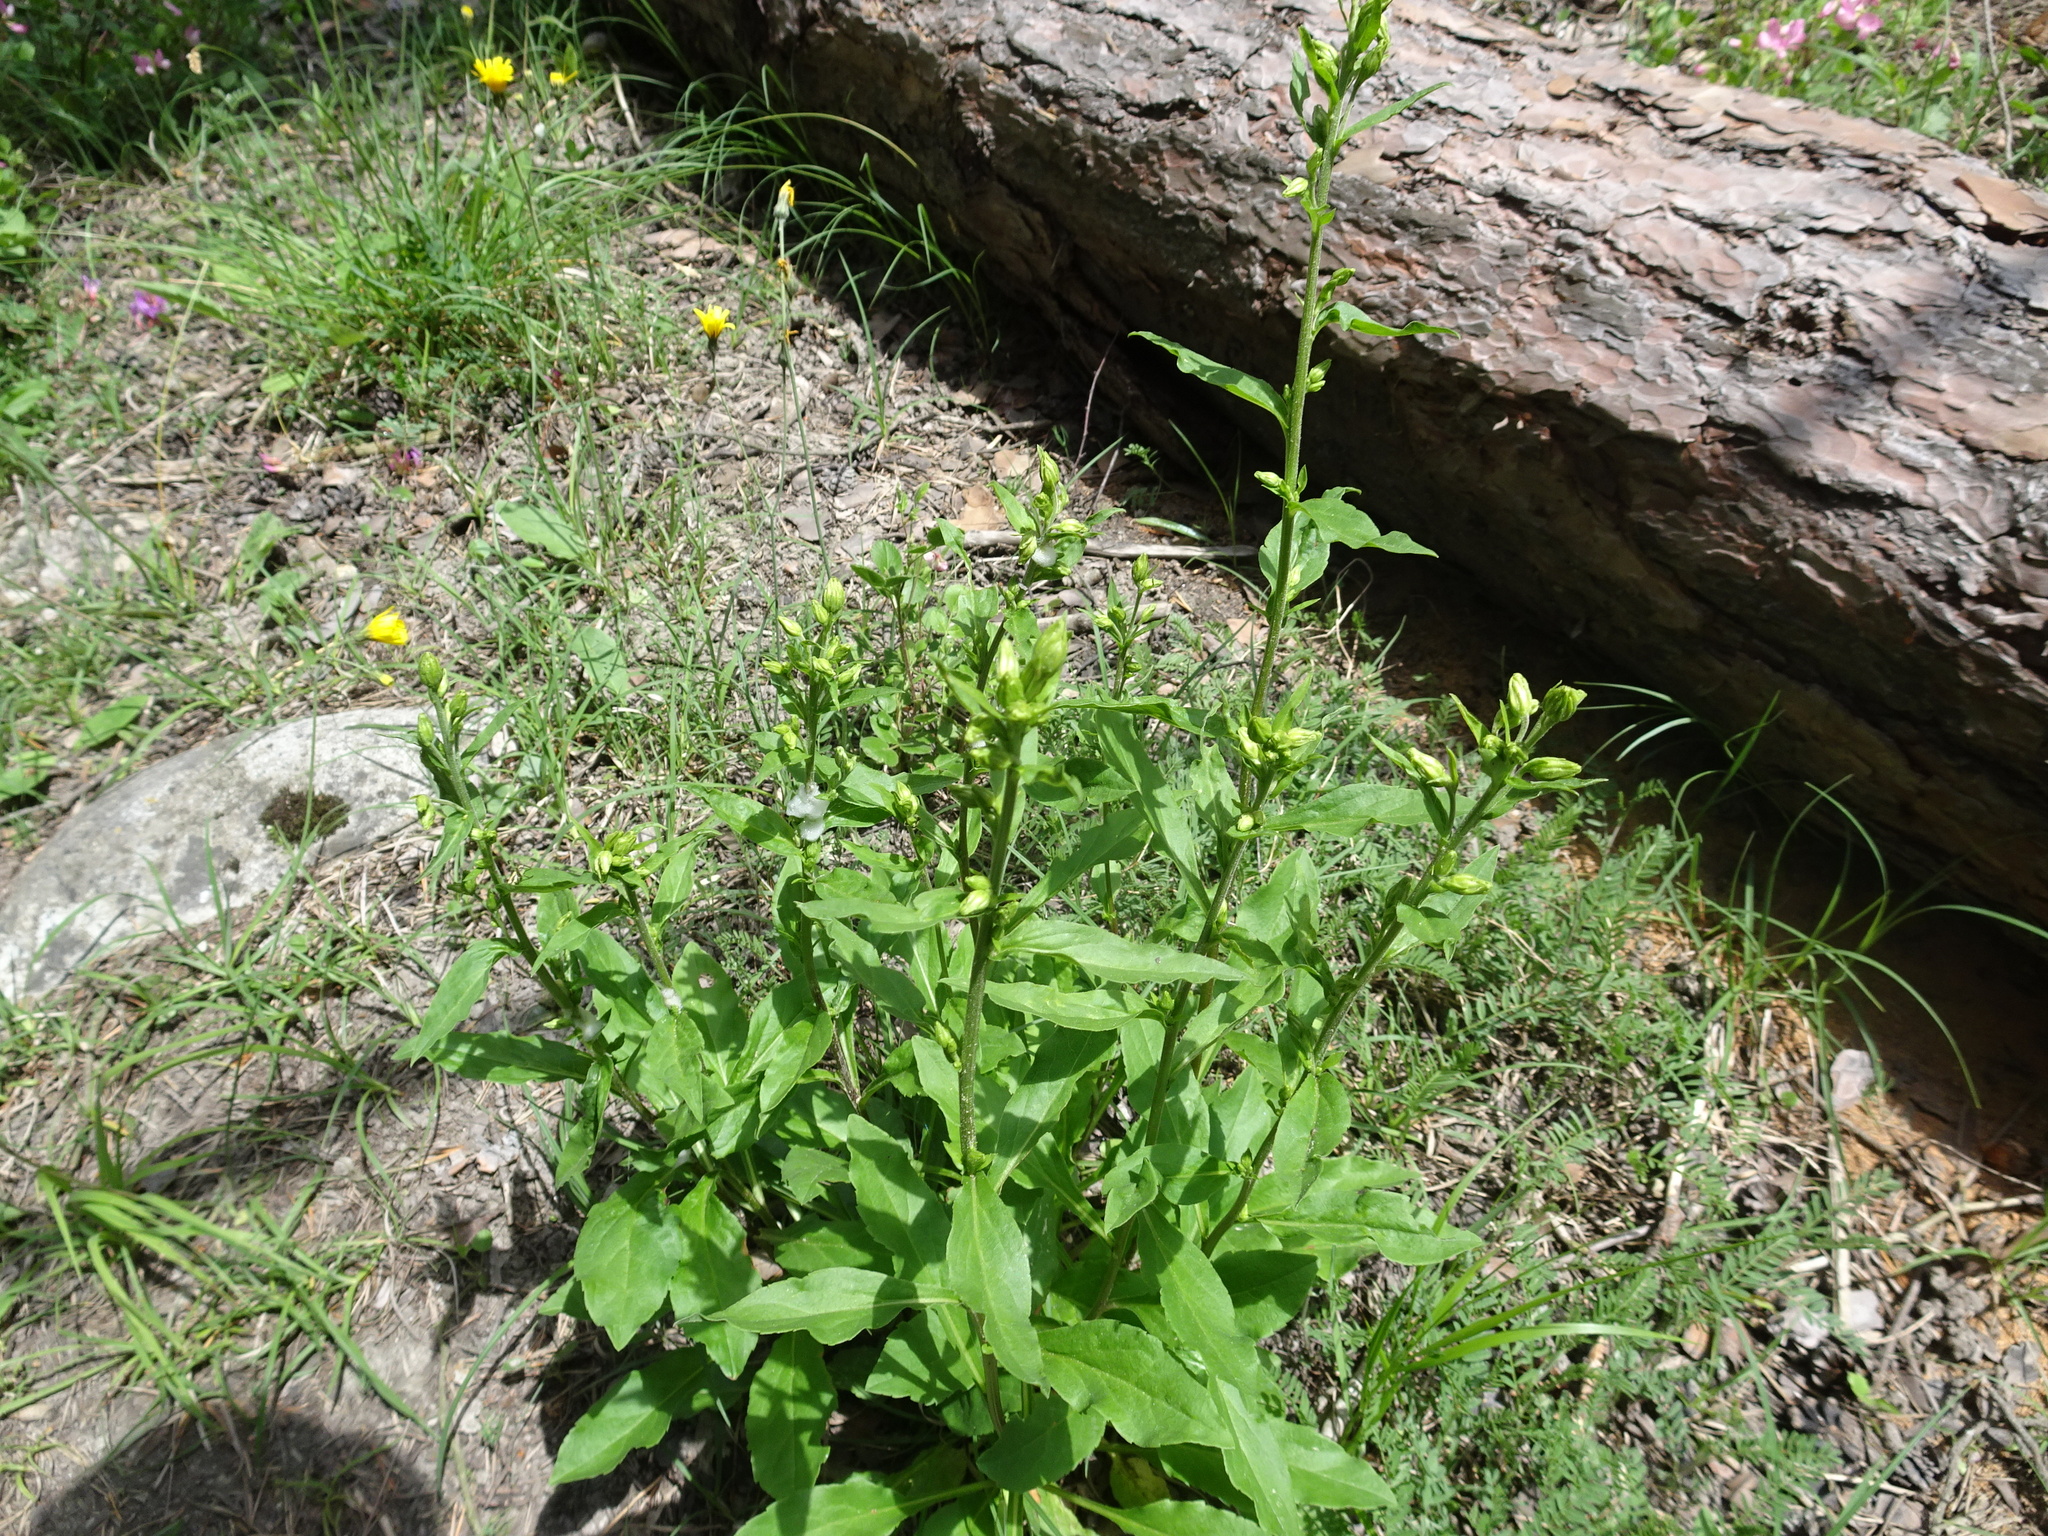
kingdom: Plantae
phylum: Tracheophyta
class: Magnoliopsida
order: Asterales
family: Asteraceae
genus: Solidago
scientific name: Solidago virgaurea
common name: Goldenrod
